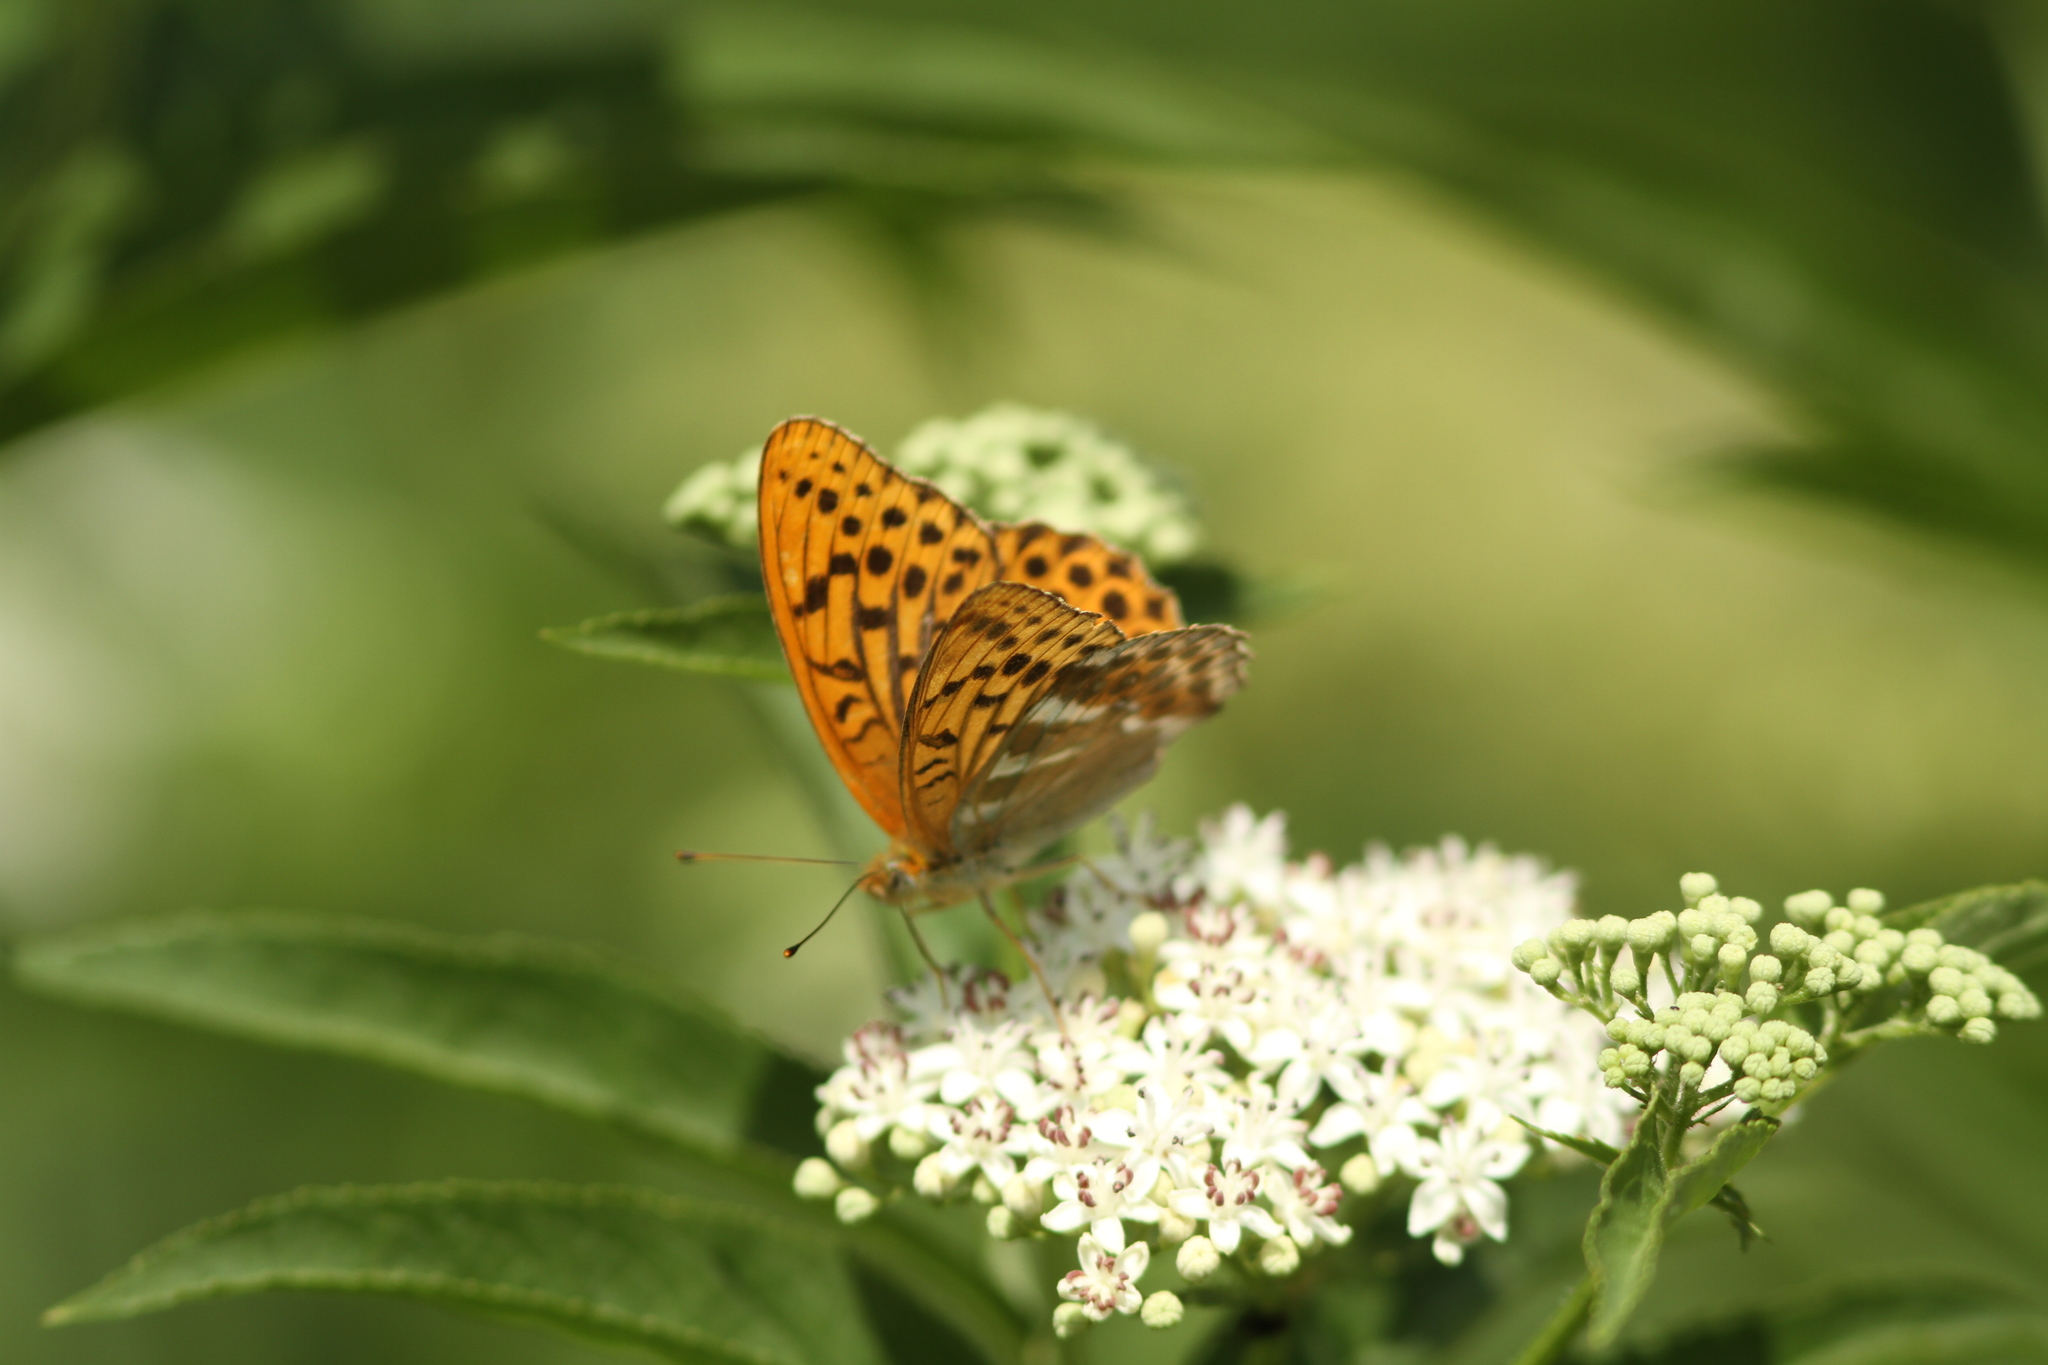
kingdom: Animalia
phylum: Arthropoda
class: Insecta
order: Lepidoptera
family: Nymphalidae
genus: Argynnis
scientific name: Argynnis paphia
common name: Silver-washed fritillary
